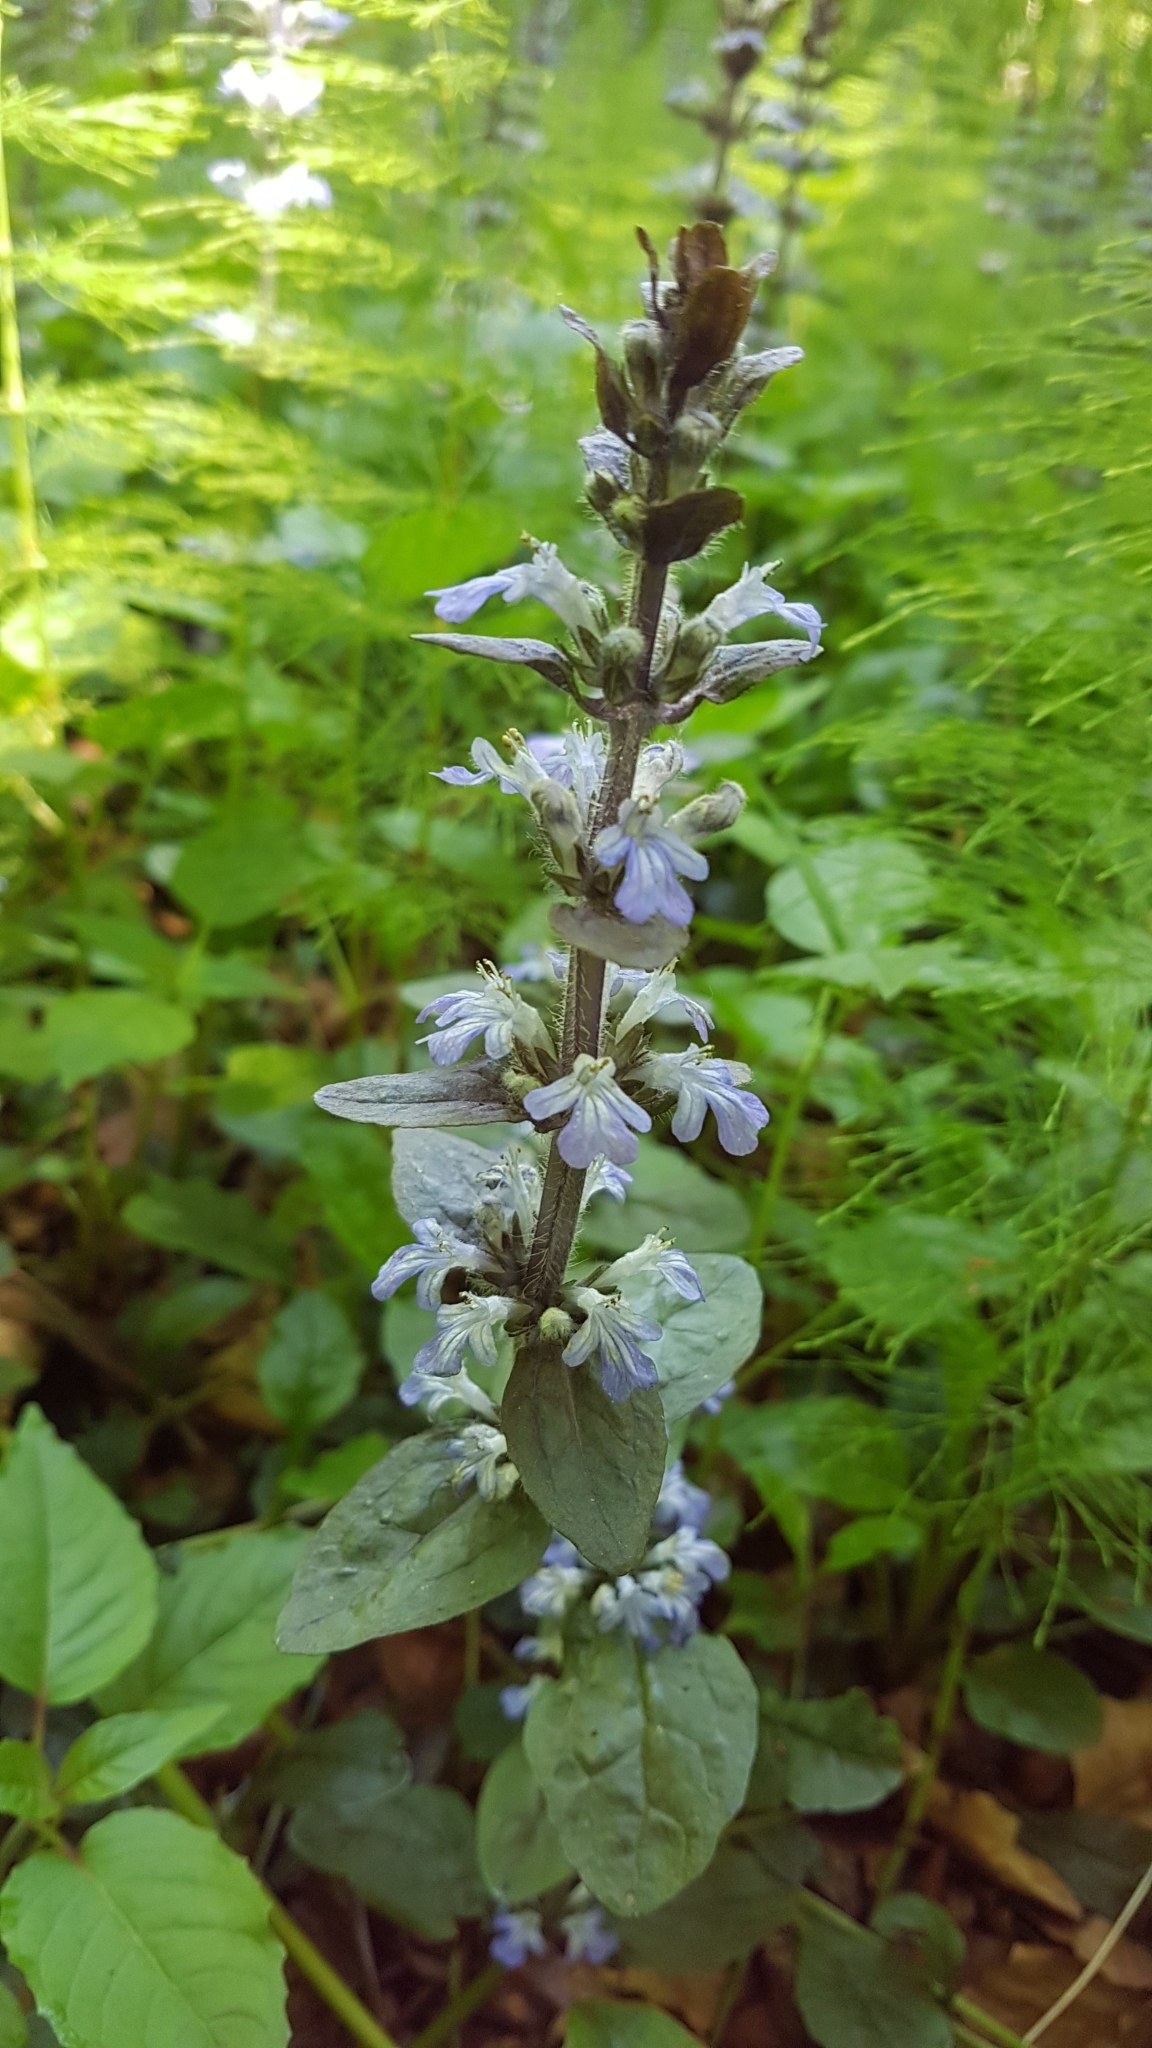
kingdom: Plantae
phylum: Tracheophyta
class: Magnoliopsida
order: Lamiales
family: Lamiaceae
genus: Ajuga
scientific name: Ajuga reptans
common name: Bugle
